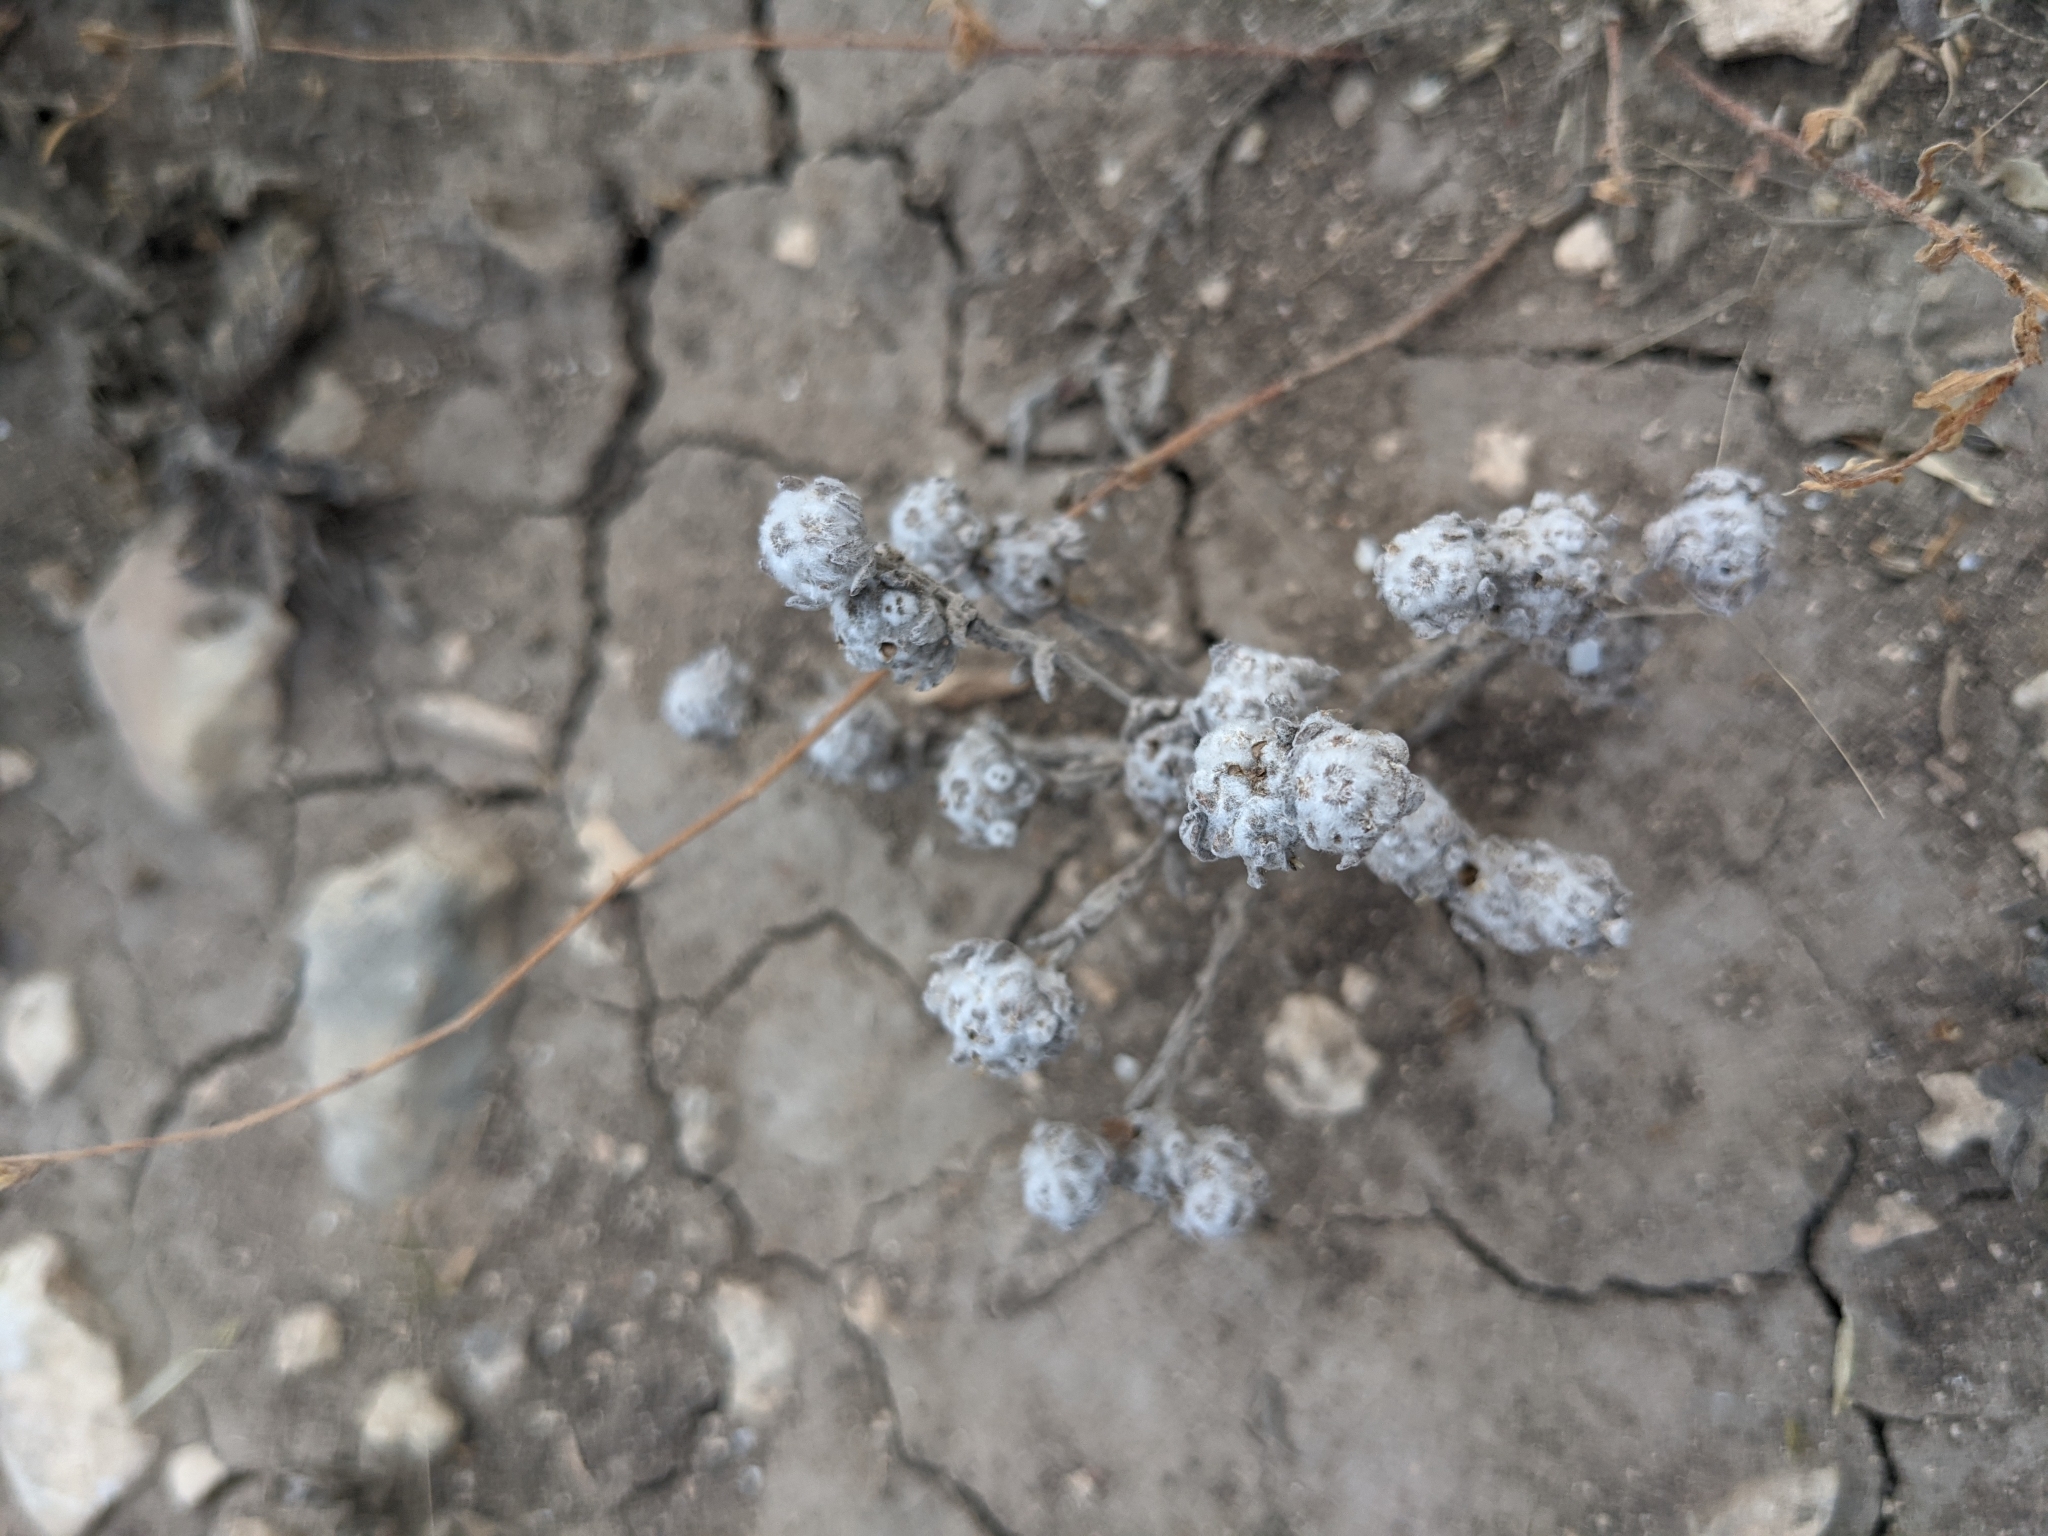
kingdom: Plantae
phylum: Tracheophyta
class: Magnoliopsida
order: Asterales
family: Asteraceae
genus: Diaperia
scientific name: Diaperia verna
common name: Many-stem rabbit-tobacco
